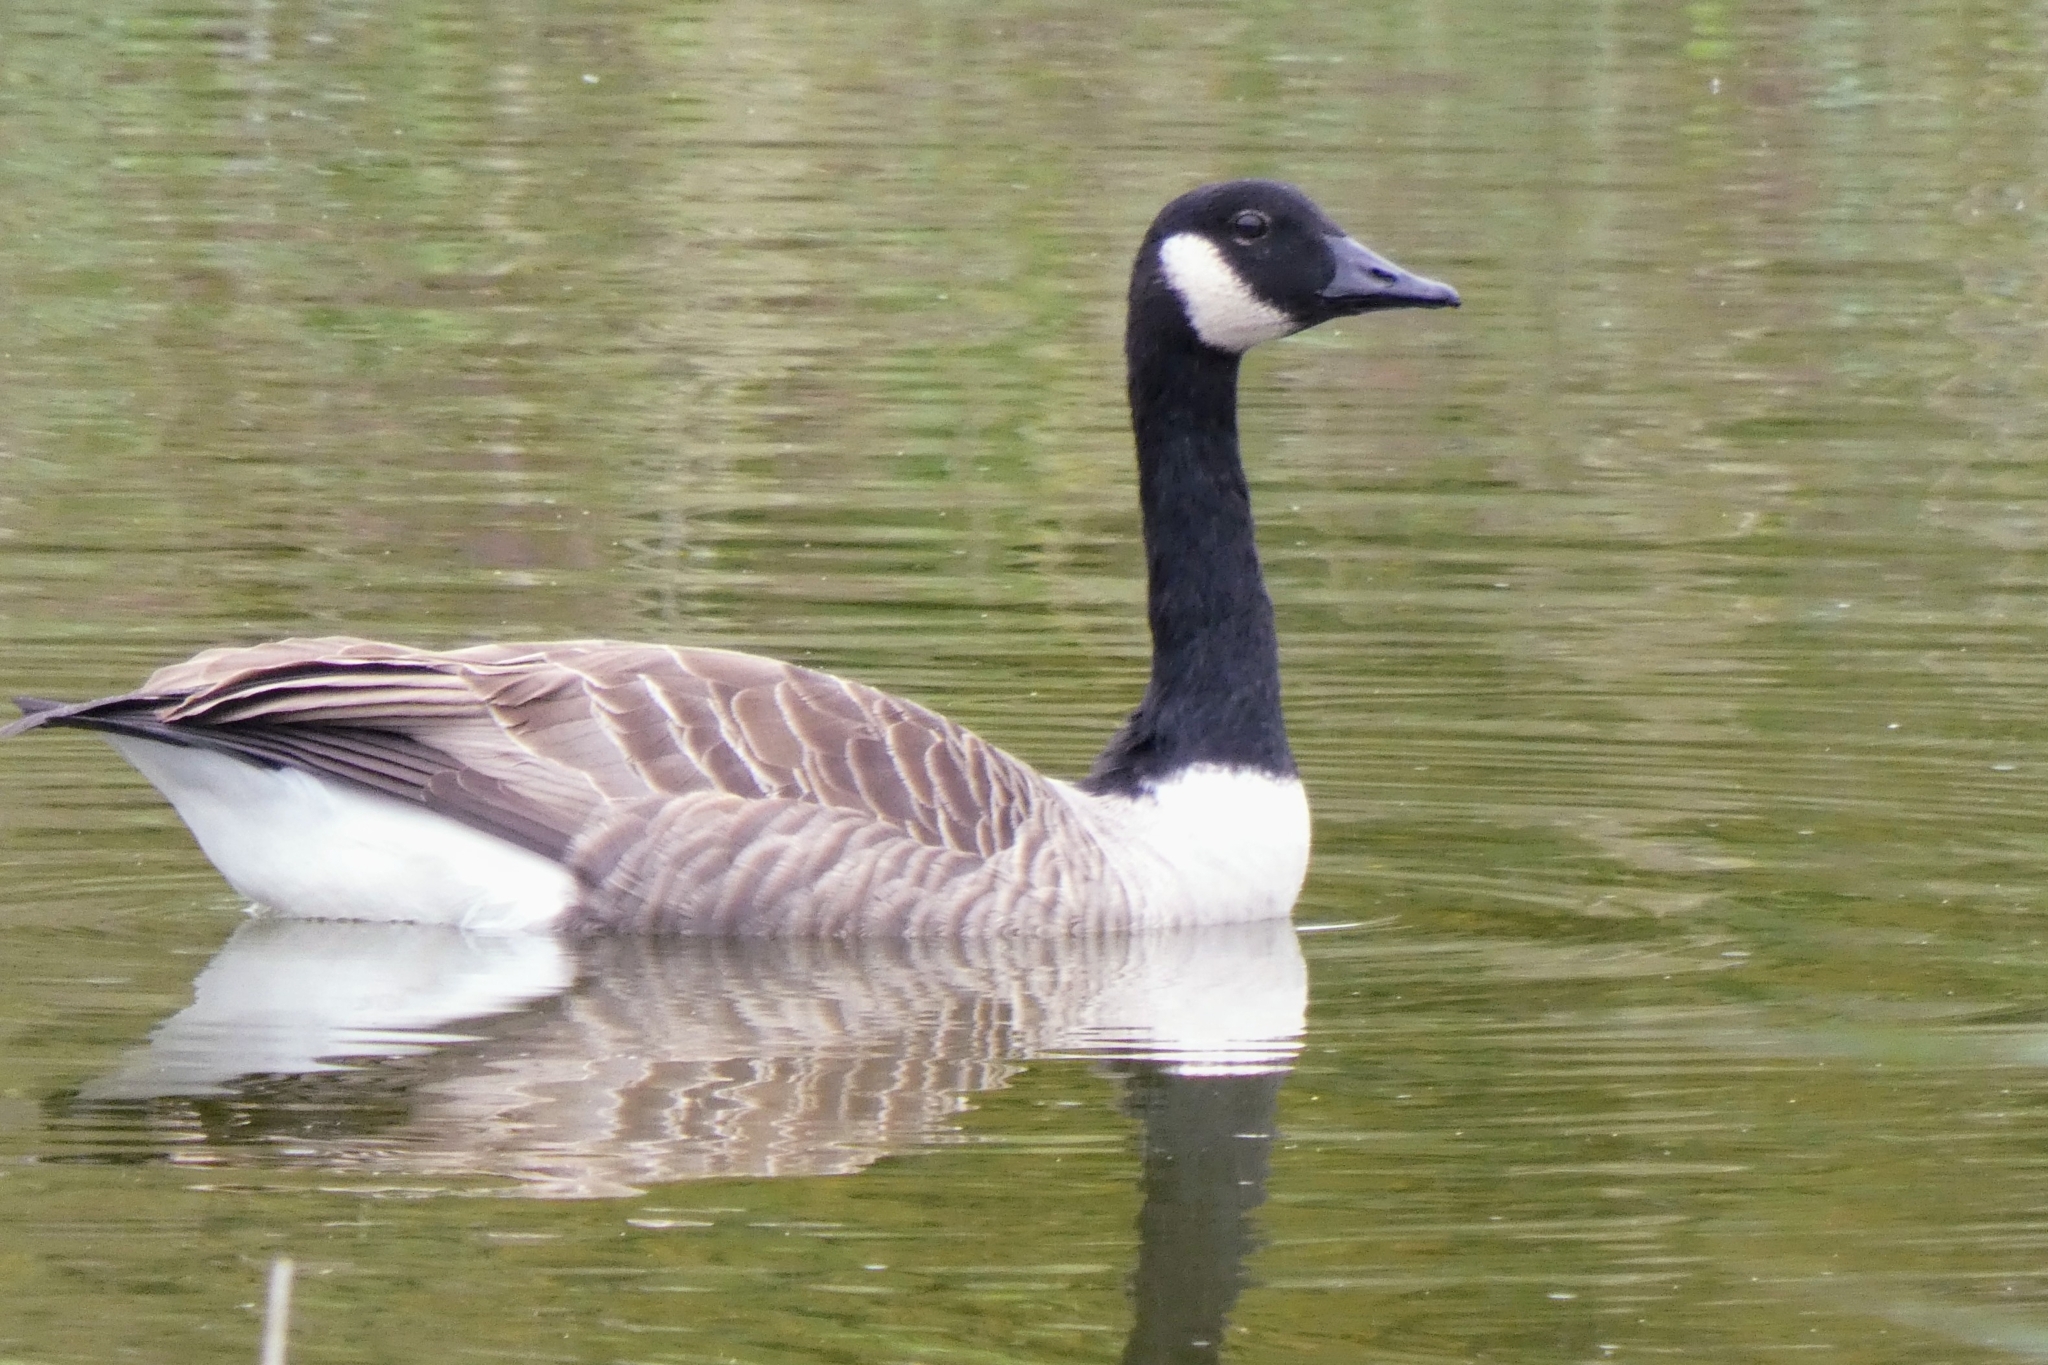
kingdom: Animalia
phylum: Chordata
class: Aves
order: Anseriformes
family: Anatidae
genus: Branta
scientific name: Branta canadensis
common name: Canada goose
